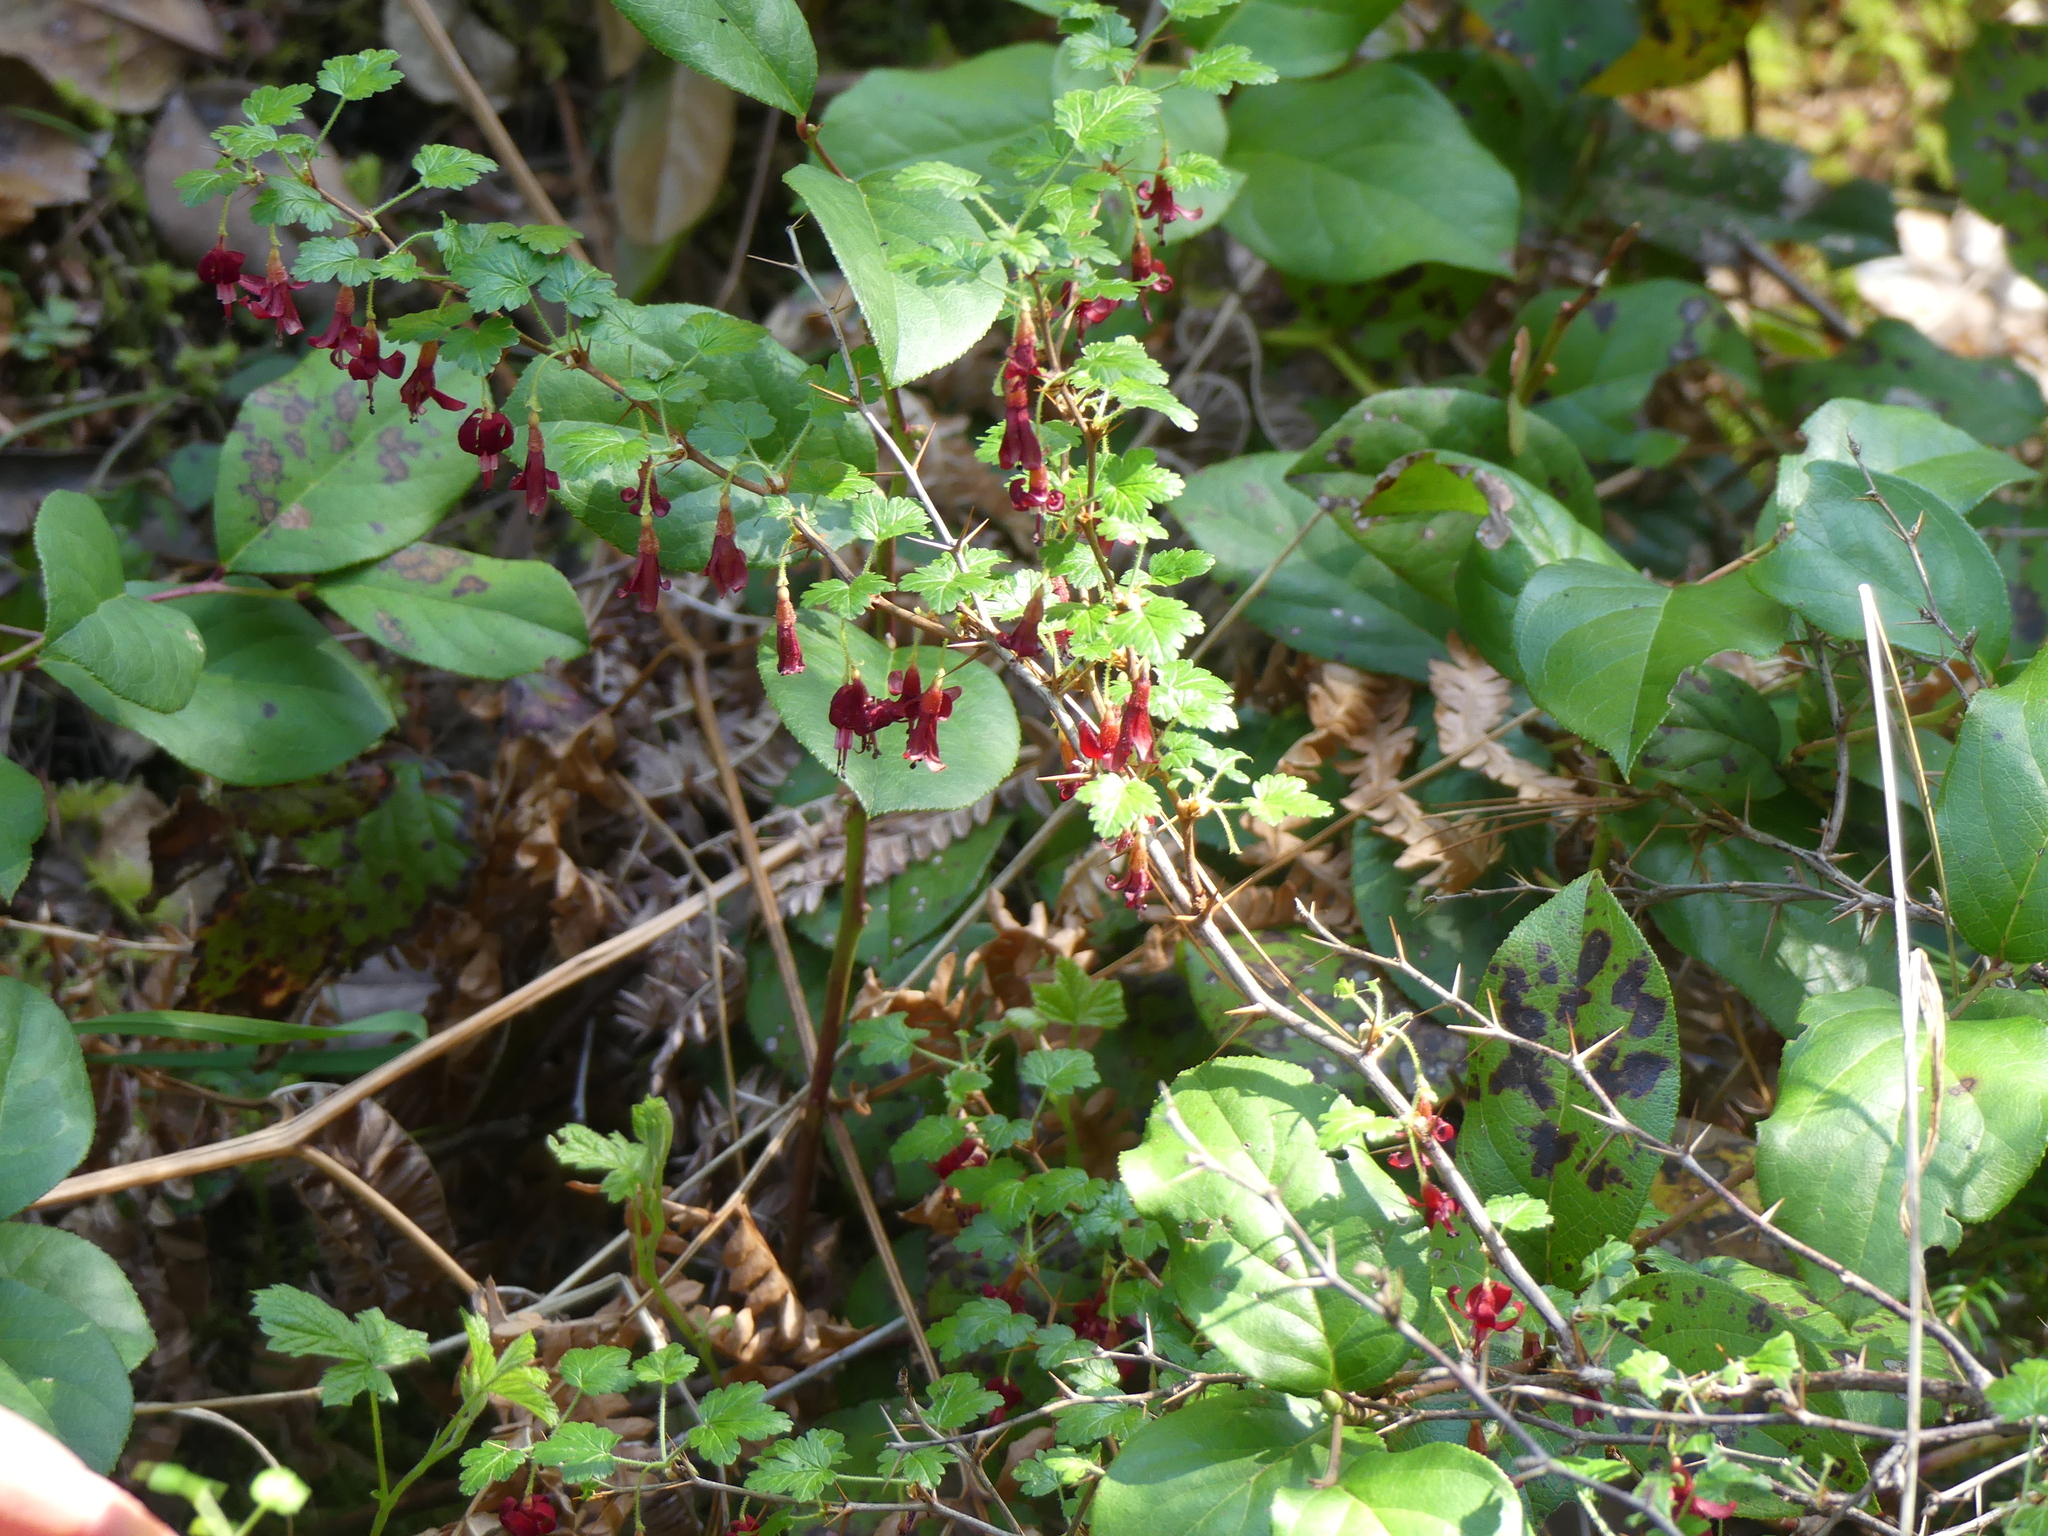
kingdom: Plantae
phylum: Tracheophyta
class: Magnoliopsida
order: Saxifragales
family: Grossulariaceae
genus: Ribes
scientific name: Ribes lobbii
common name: Gummy gooseberry
